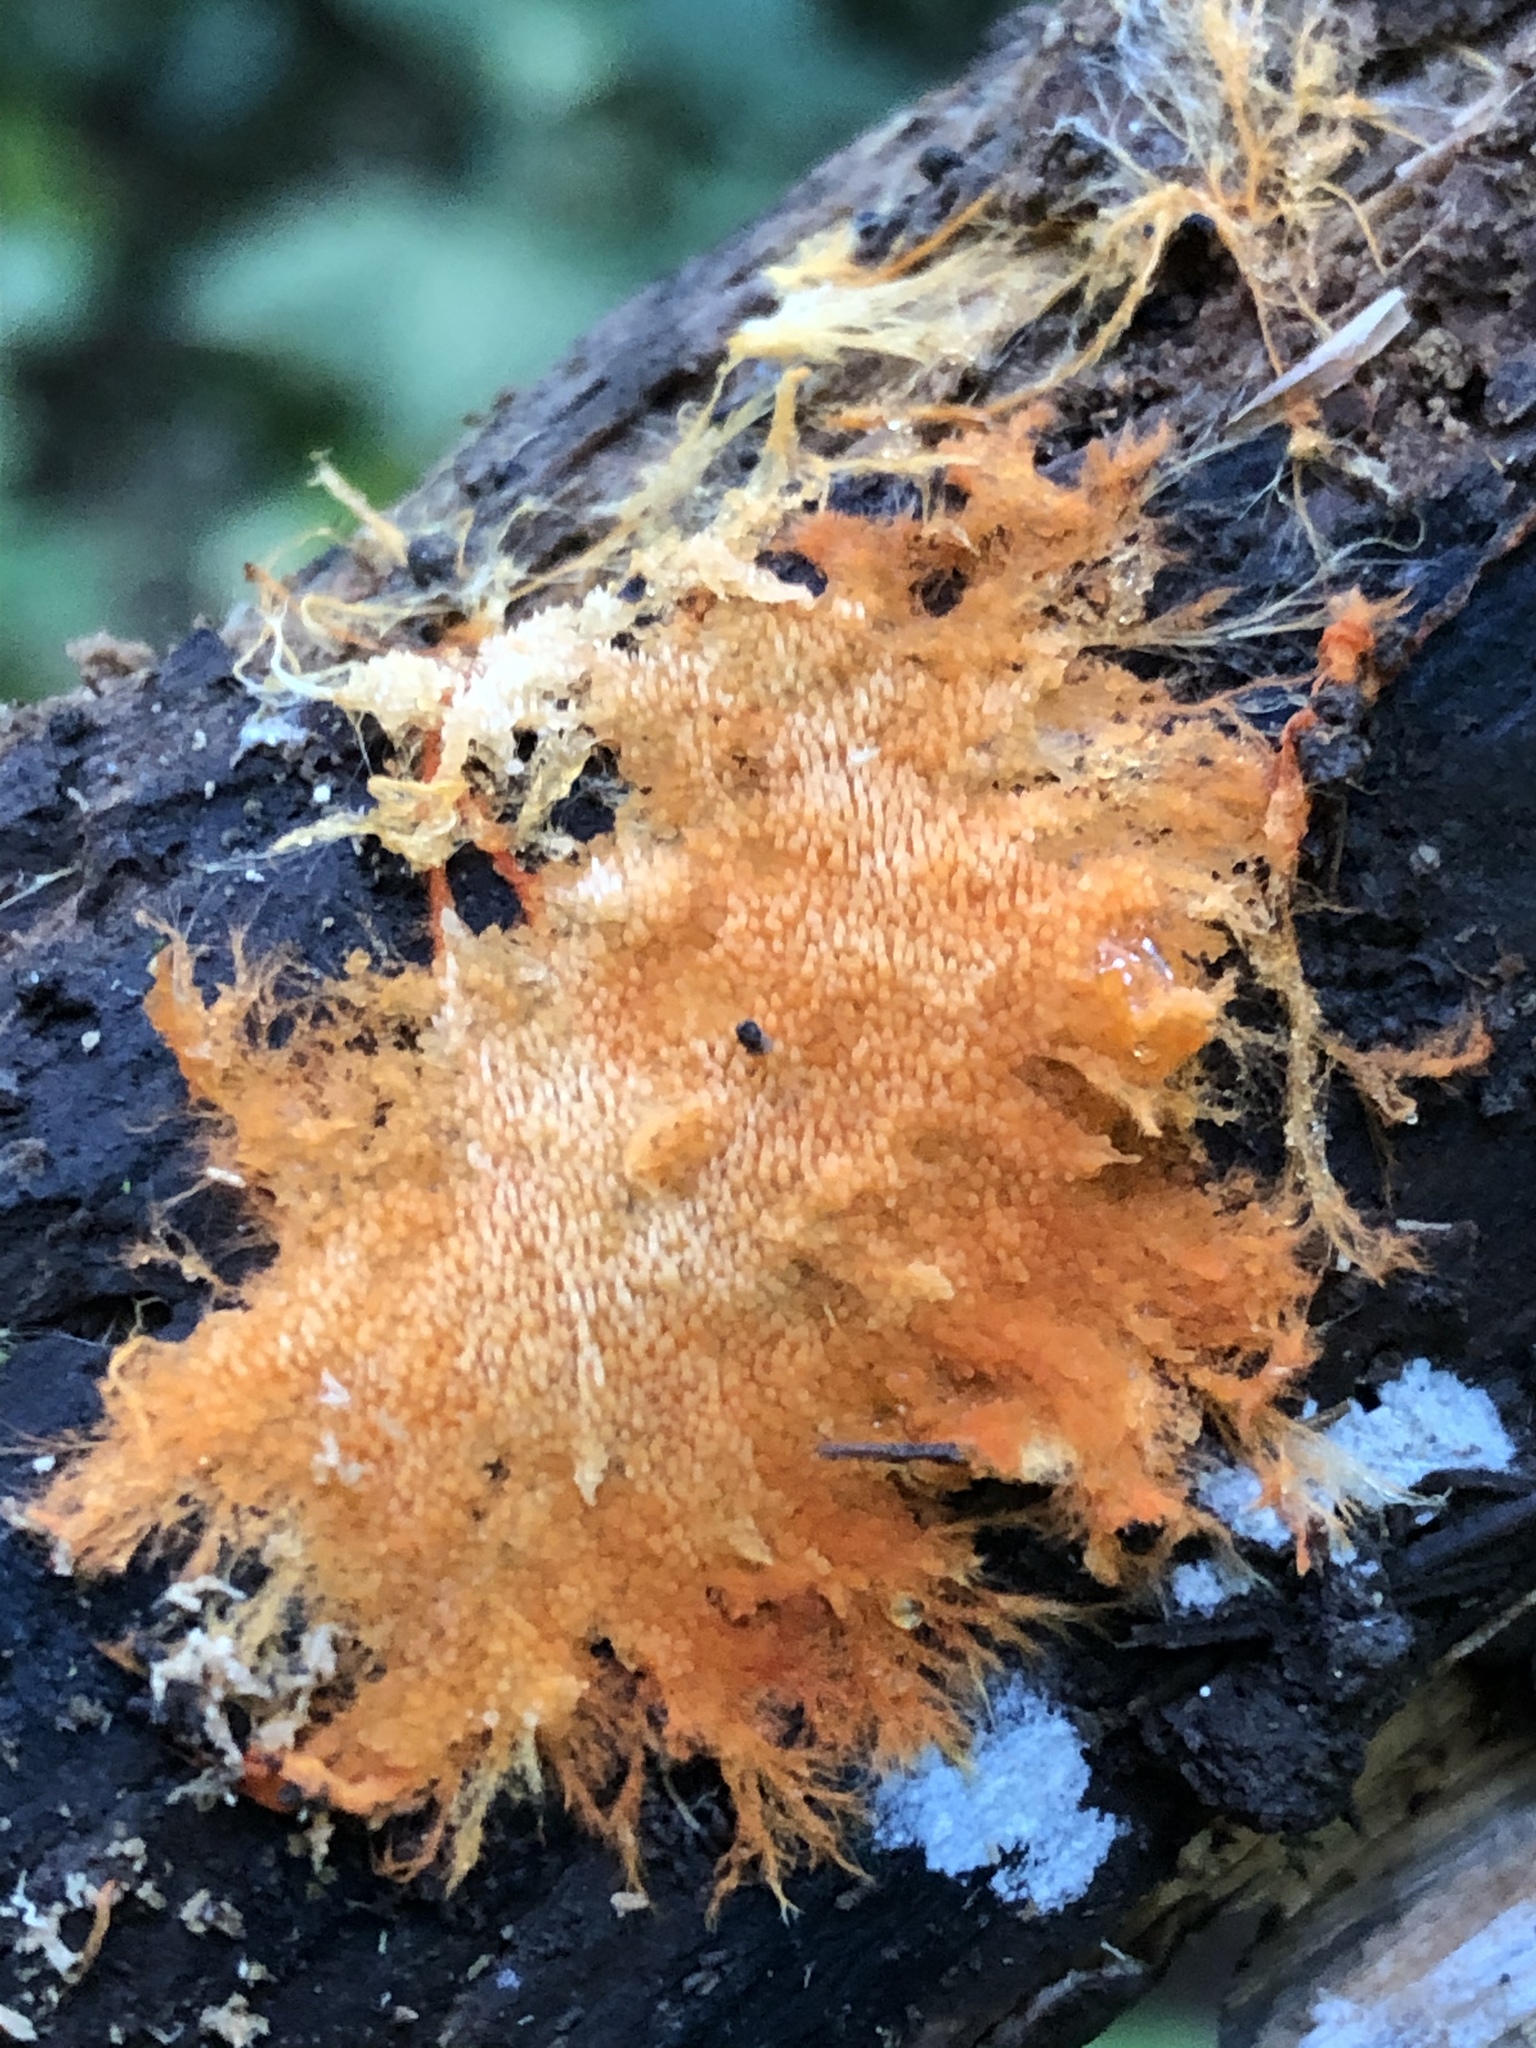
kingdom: Fungi
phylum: Basidiomycota
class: Agaricomycetes
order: Polyporales
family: Meruliaceae
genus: Hydnophlebia
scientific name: Hydnophlebia chrysorhiza
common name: Spreading yellow tooth
